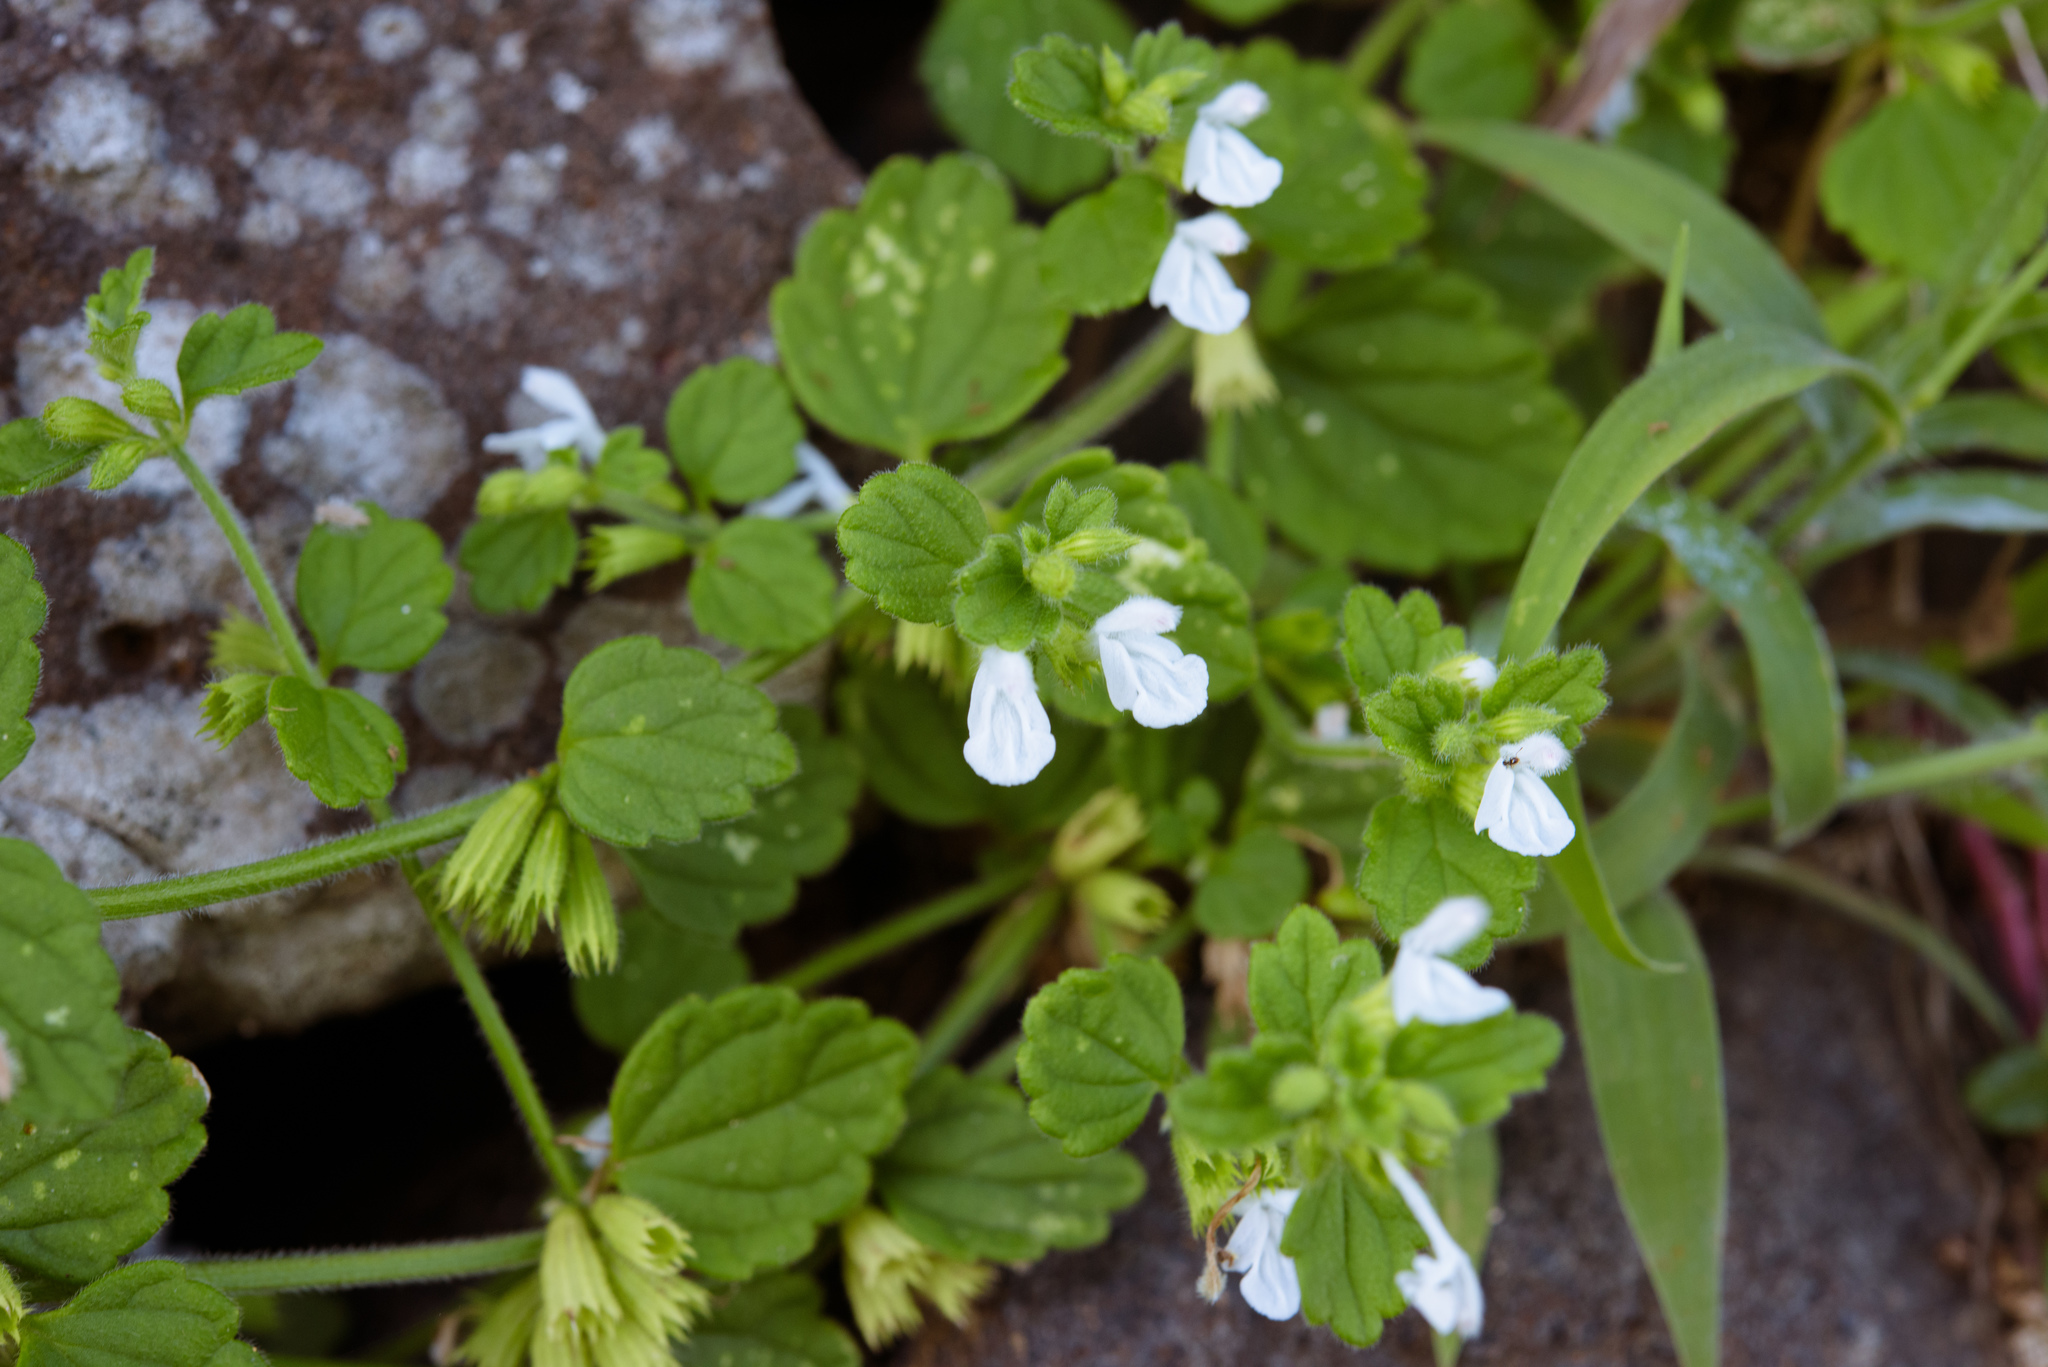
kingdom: Plantae
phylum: Tracheophyta
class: Magnoliopsida
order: Lamiales
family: Lamiaceae
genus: Leucas
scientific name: Leucas chinensis
